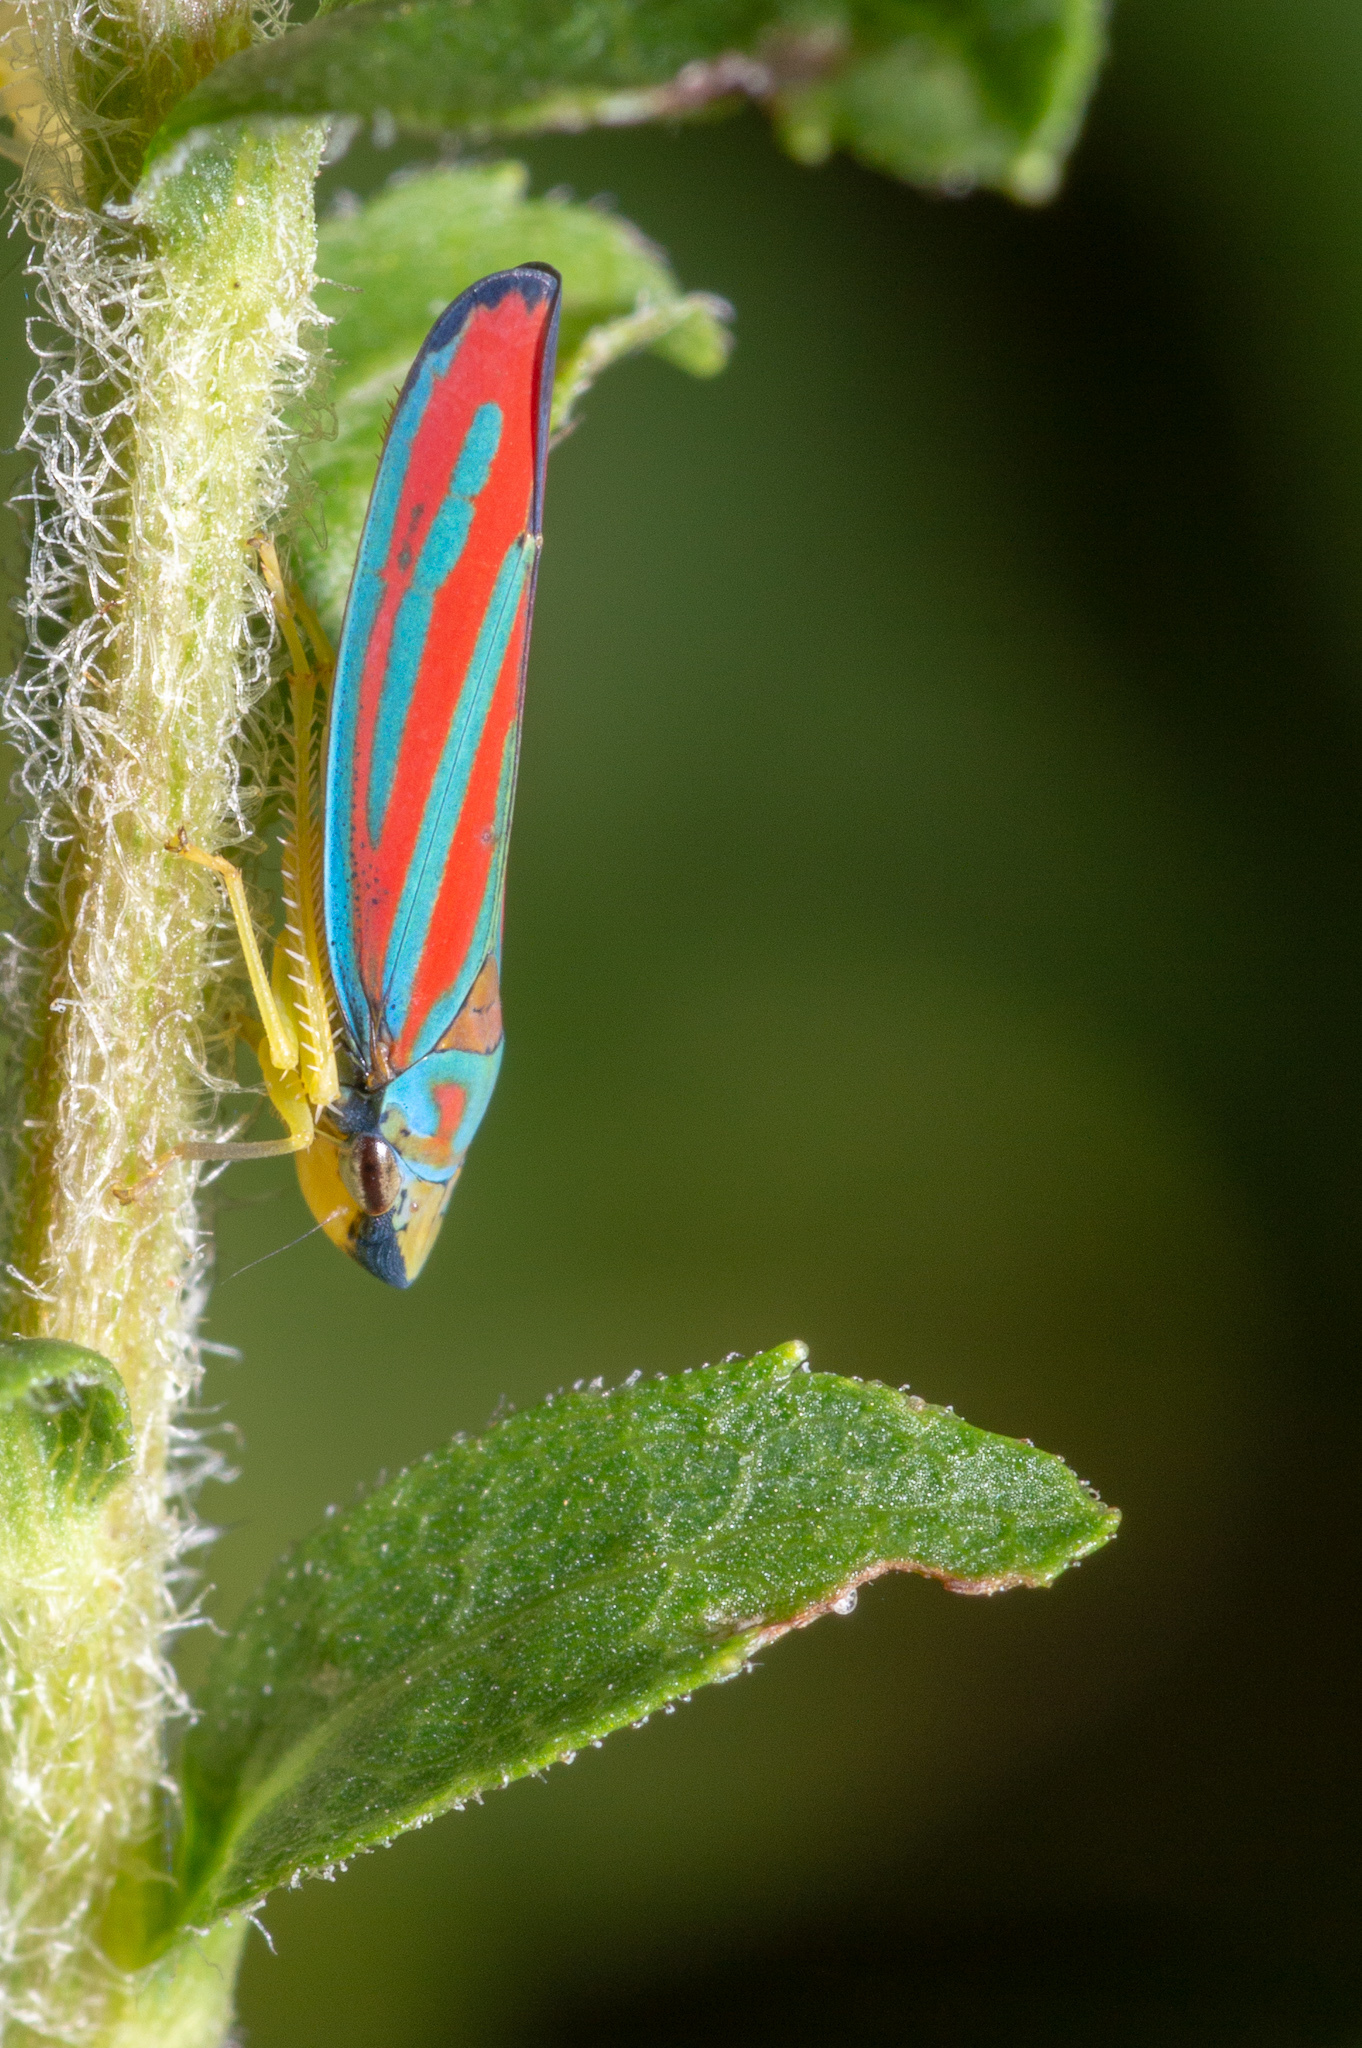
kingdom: Animalia
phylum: Arthropoda
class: Insecta
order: Hemiptera
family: Cicadellidae
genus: Graphocephala
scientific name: Graphocephala coccinea
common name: Candy-striped leafhopper
